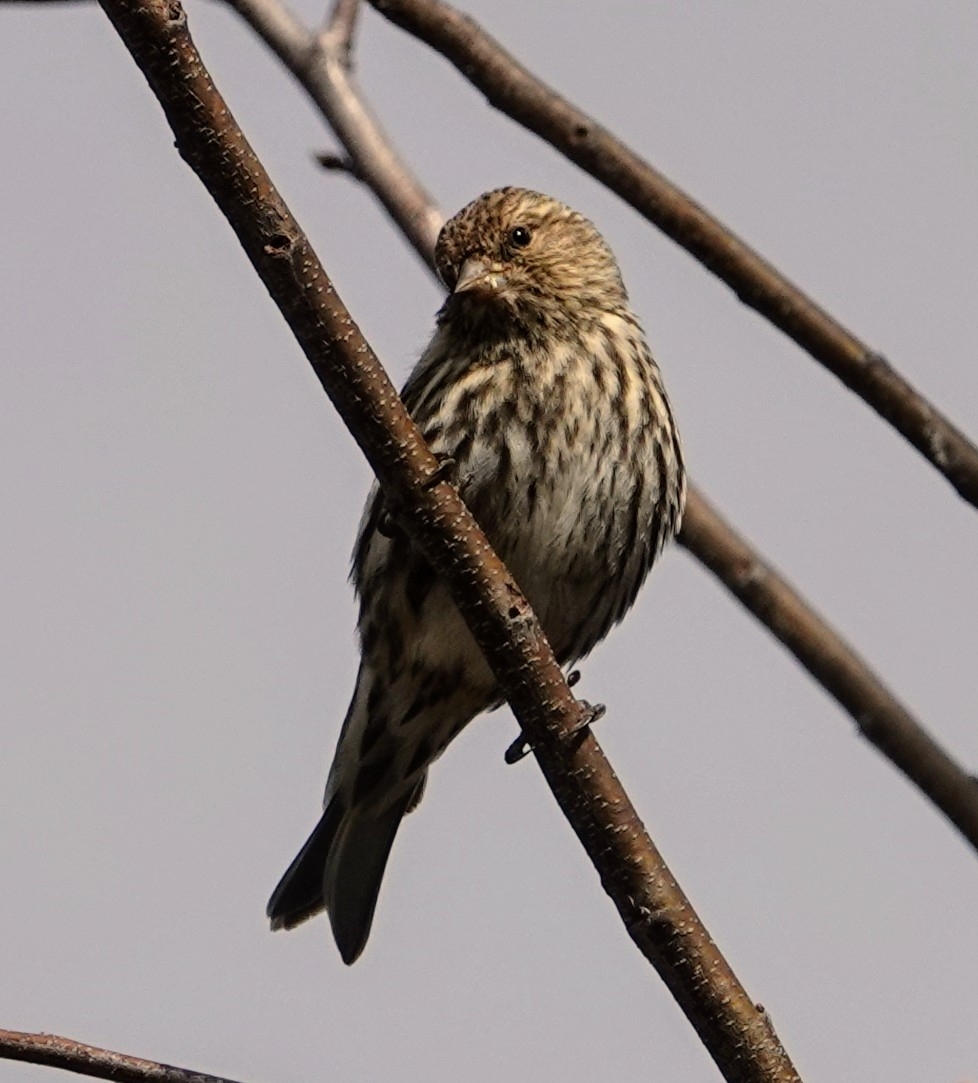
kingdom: Animalia
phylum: Chordata
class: Aves
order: Passeriformes
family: Fringillidae
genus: Spinus
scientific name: Spinus pinus
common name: Pine siskin
